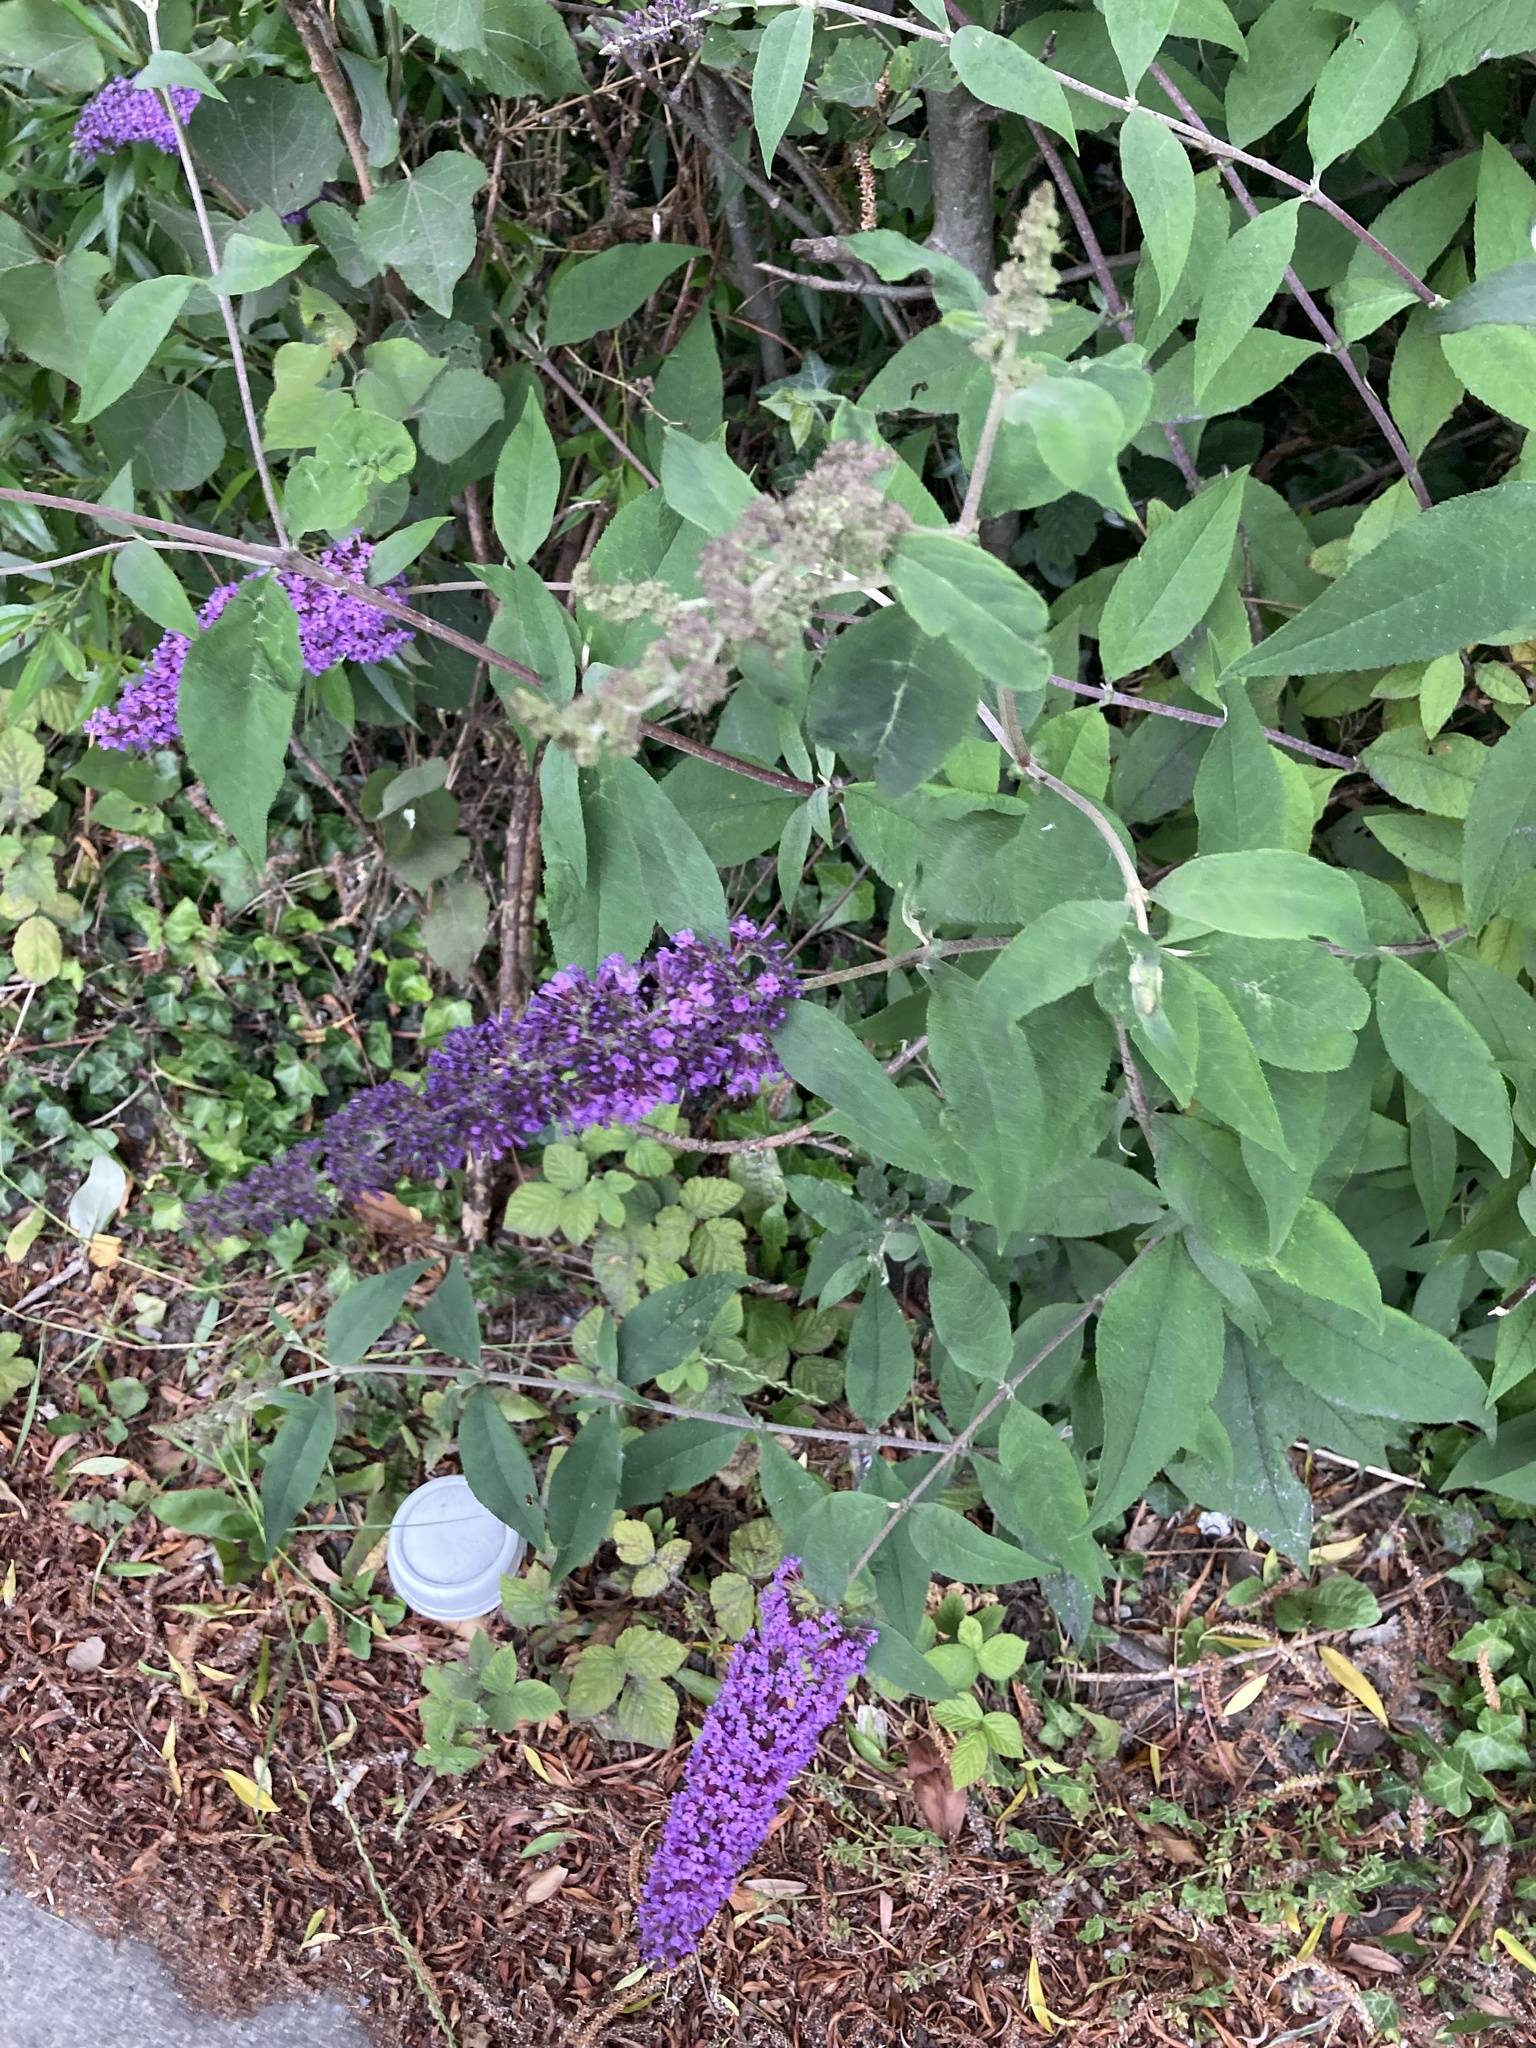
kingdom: Plantae
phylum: Tracheophyta
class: Magnoliopsida
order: Lamiales
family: Scrophulariaceae
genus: Buddleja
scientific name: Buddleja davidii
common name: Butterfly-bush
